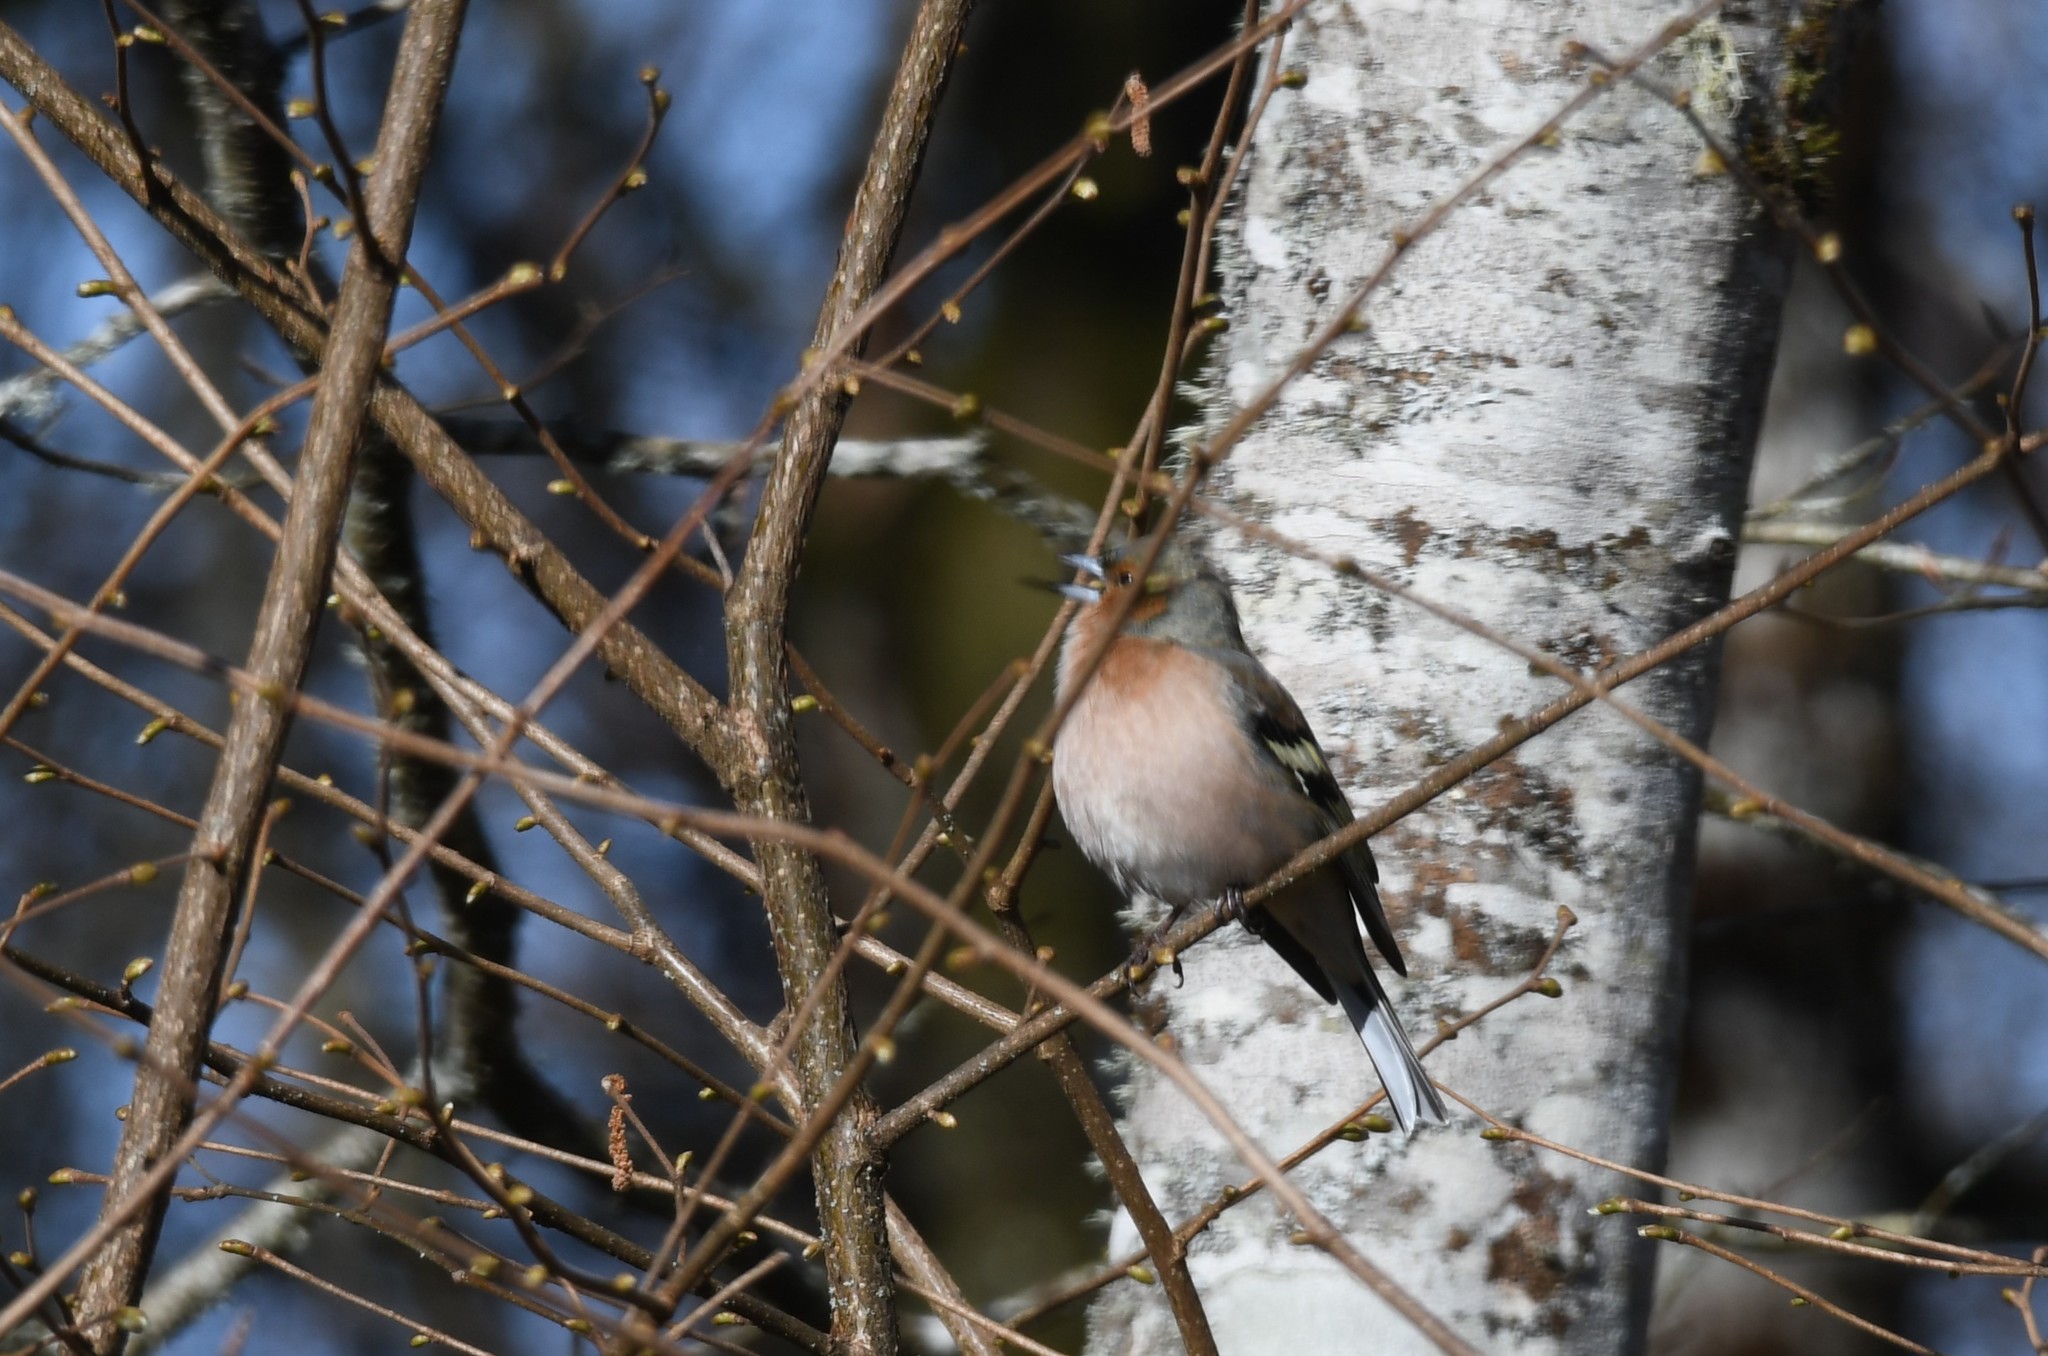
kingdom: Animalia
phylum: Chordata
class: Aves
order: Passeriformes
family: Fringillidae
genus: Fringilla
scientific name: Fringilla coelebs
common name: Common chaffinch
